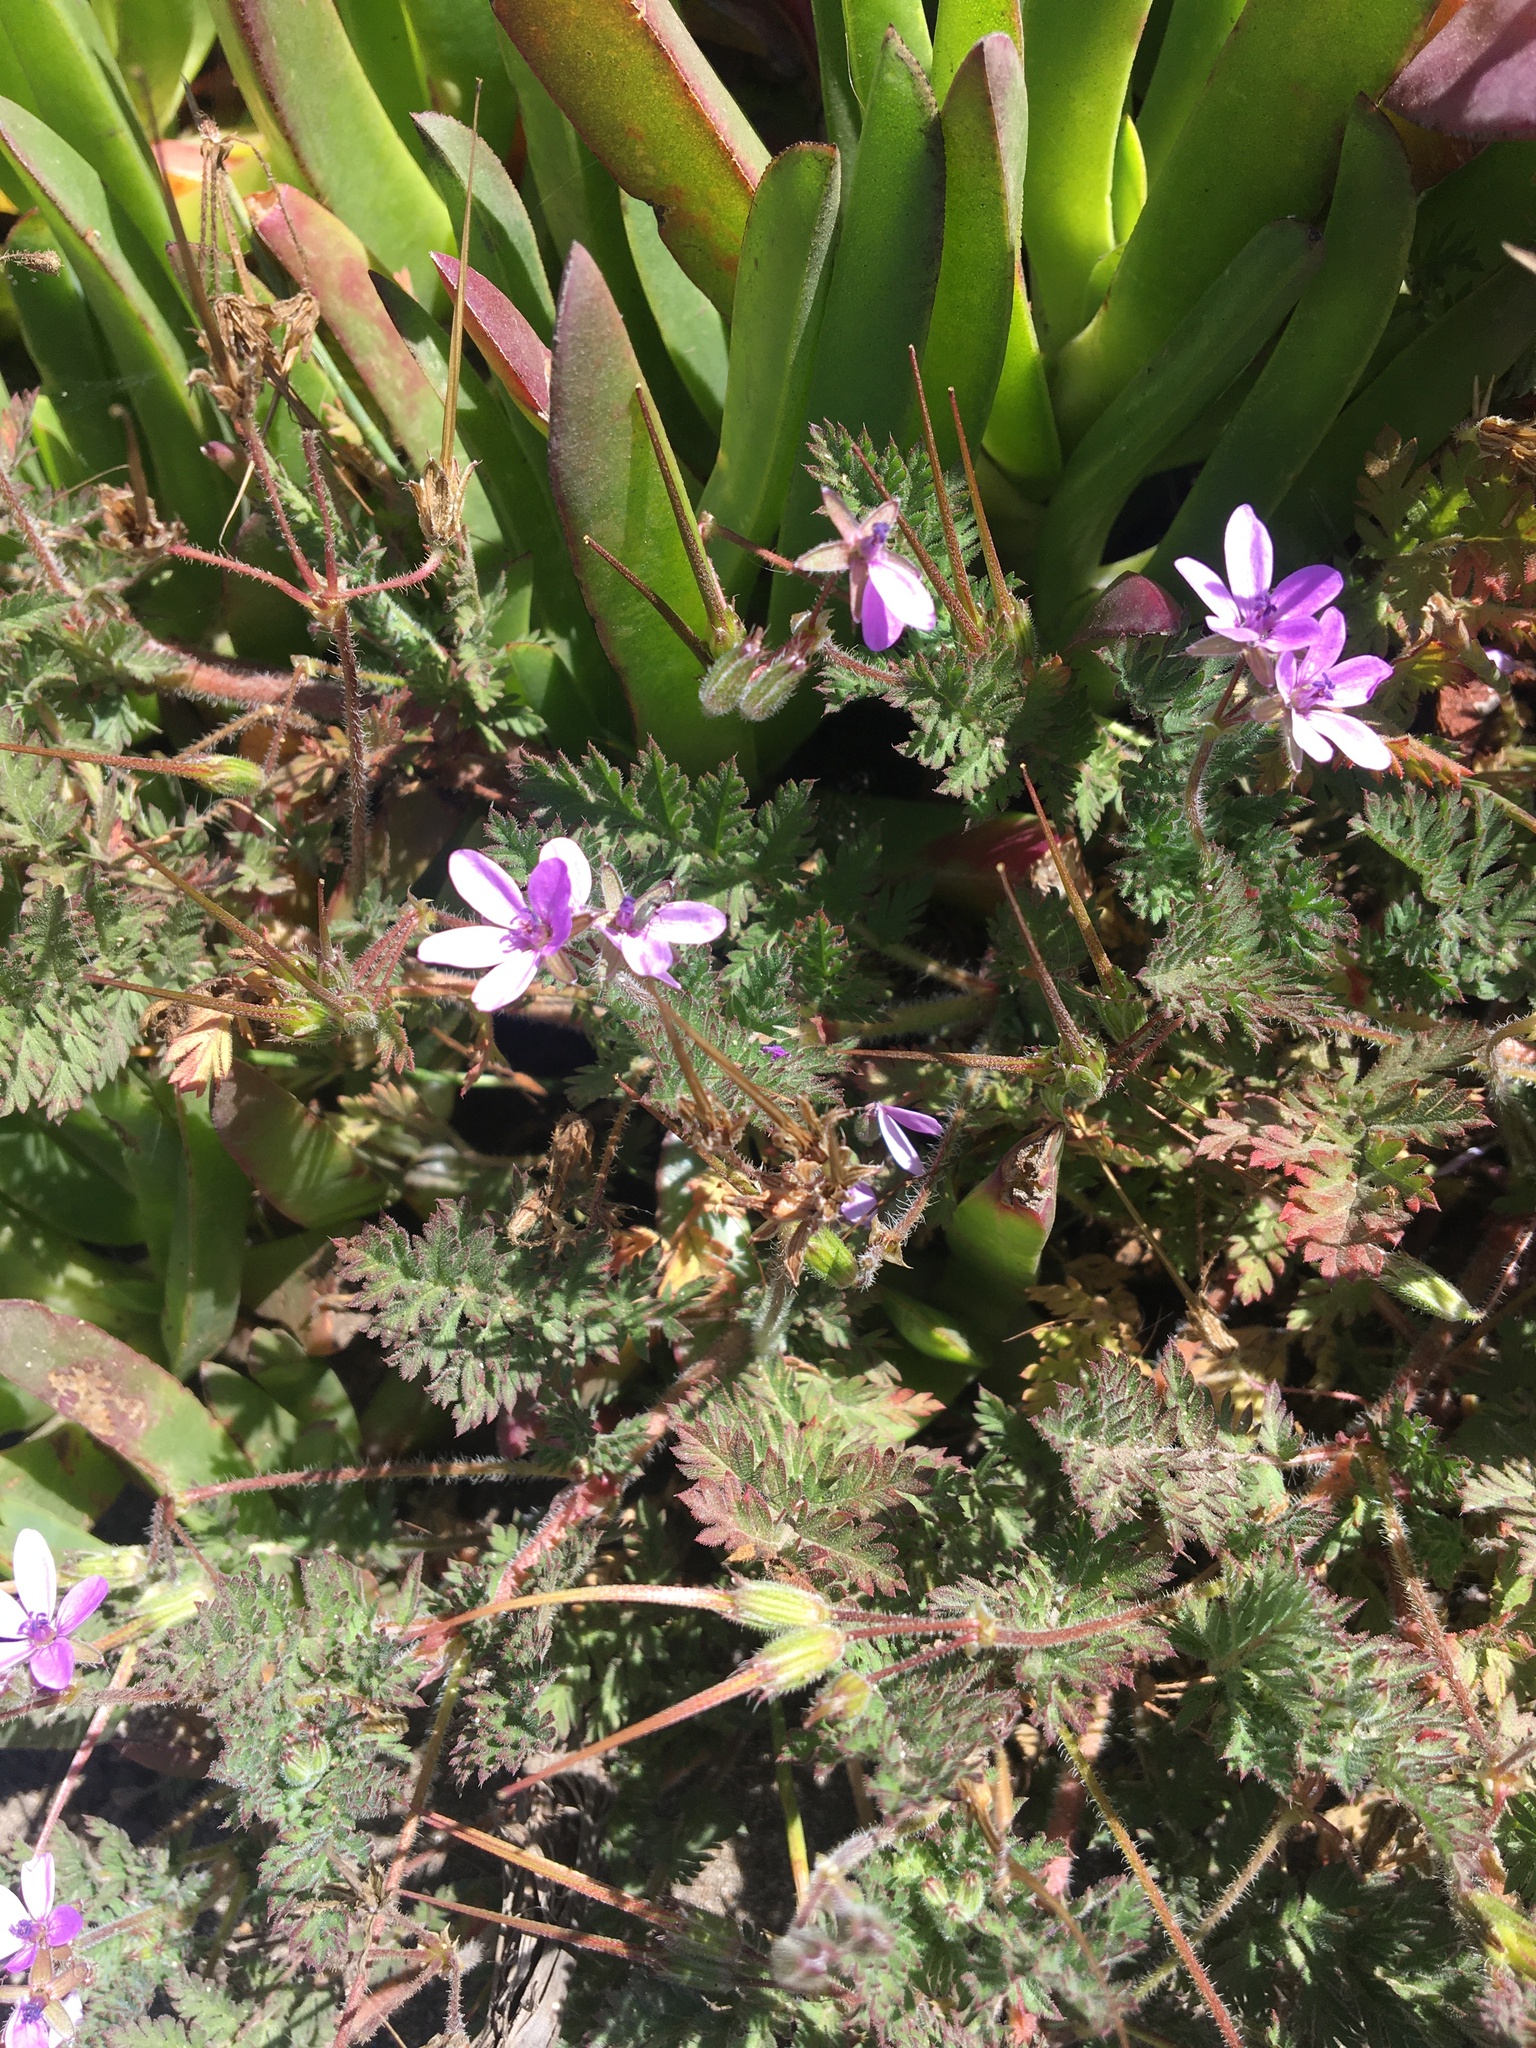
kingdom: Plantae
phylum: Tracheophyta
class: Magnoliopsida
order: Geraniales
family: Geraniaceae
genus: Erodium
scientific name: Erodium cicutarium
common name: Common stork's-bill
